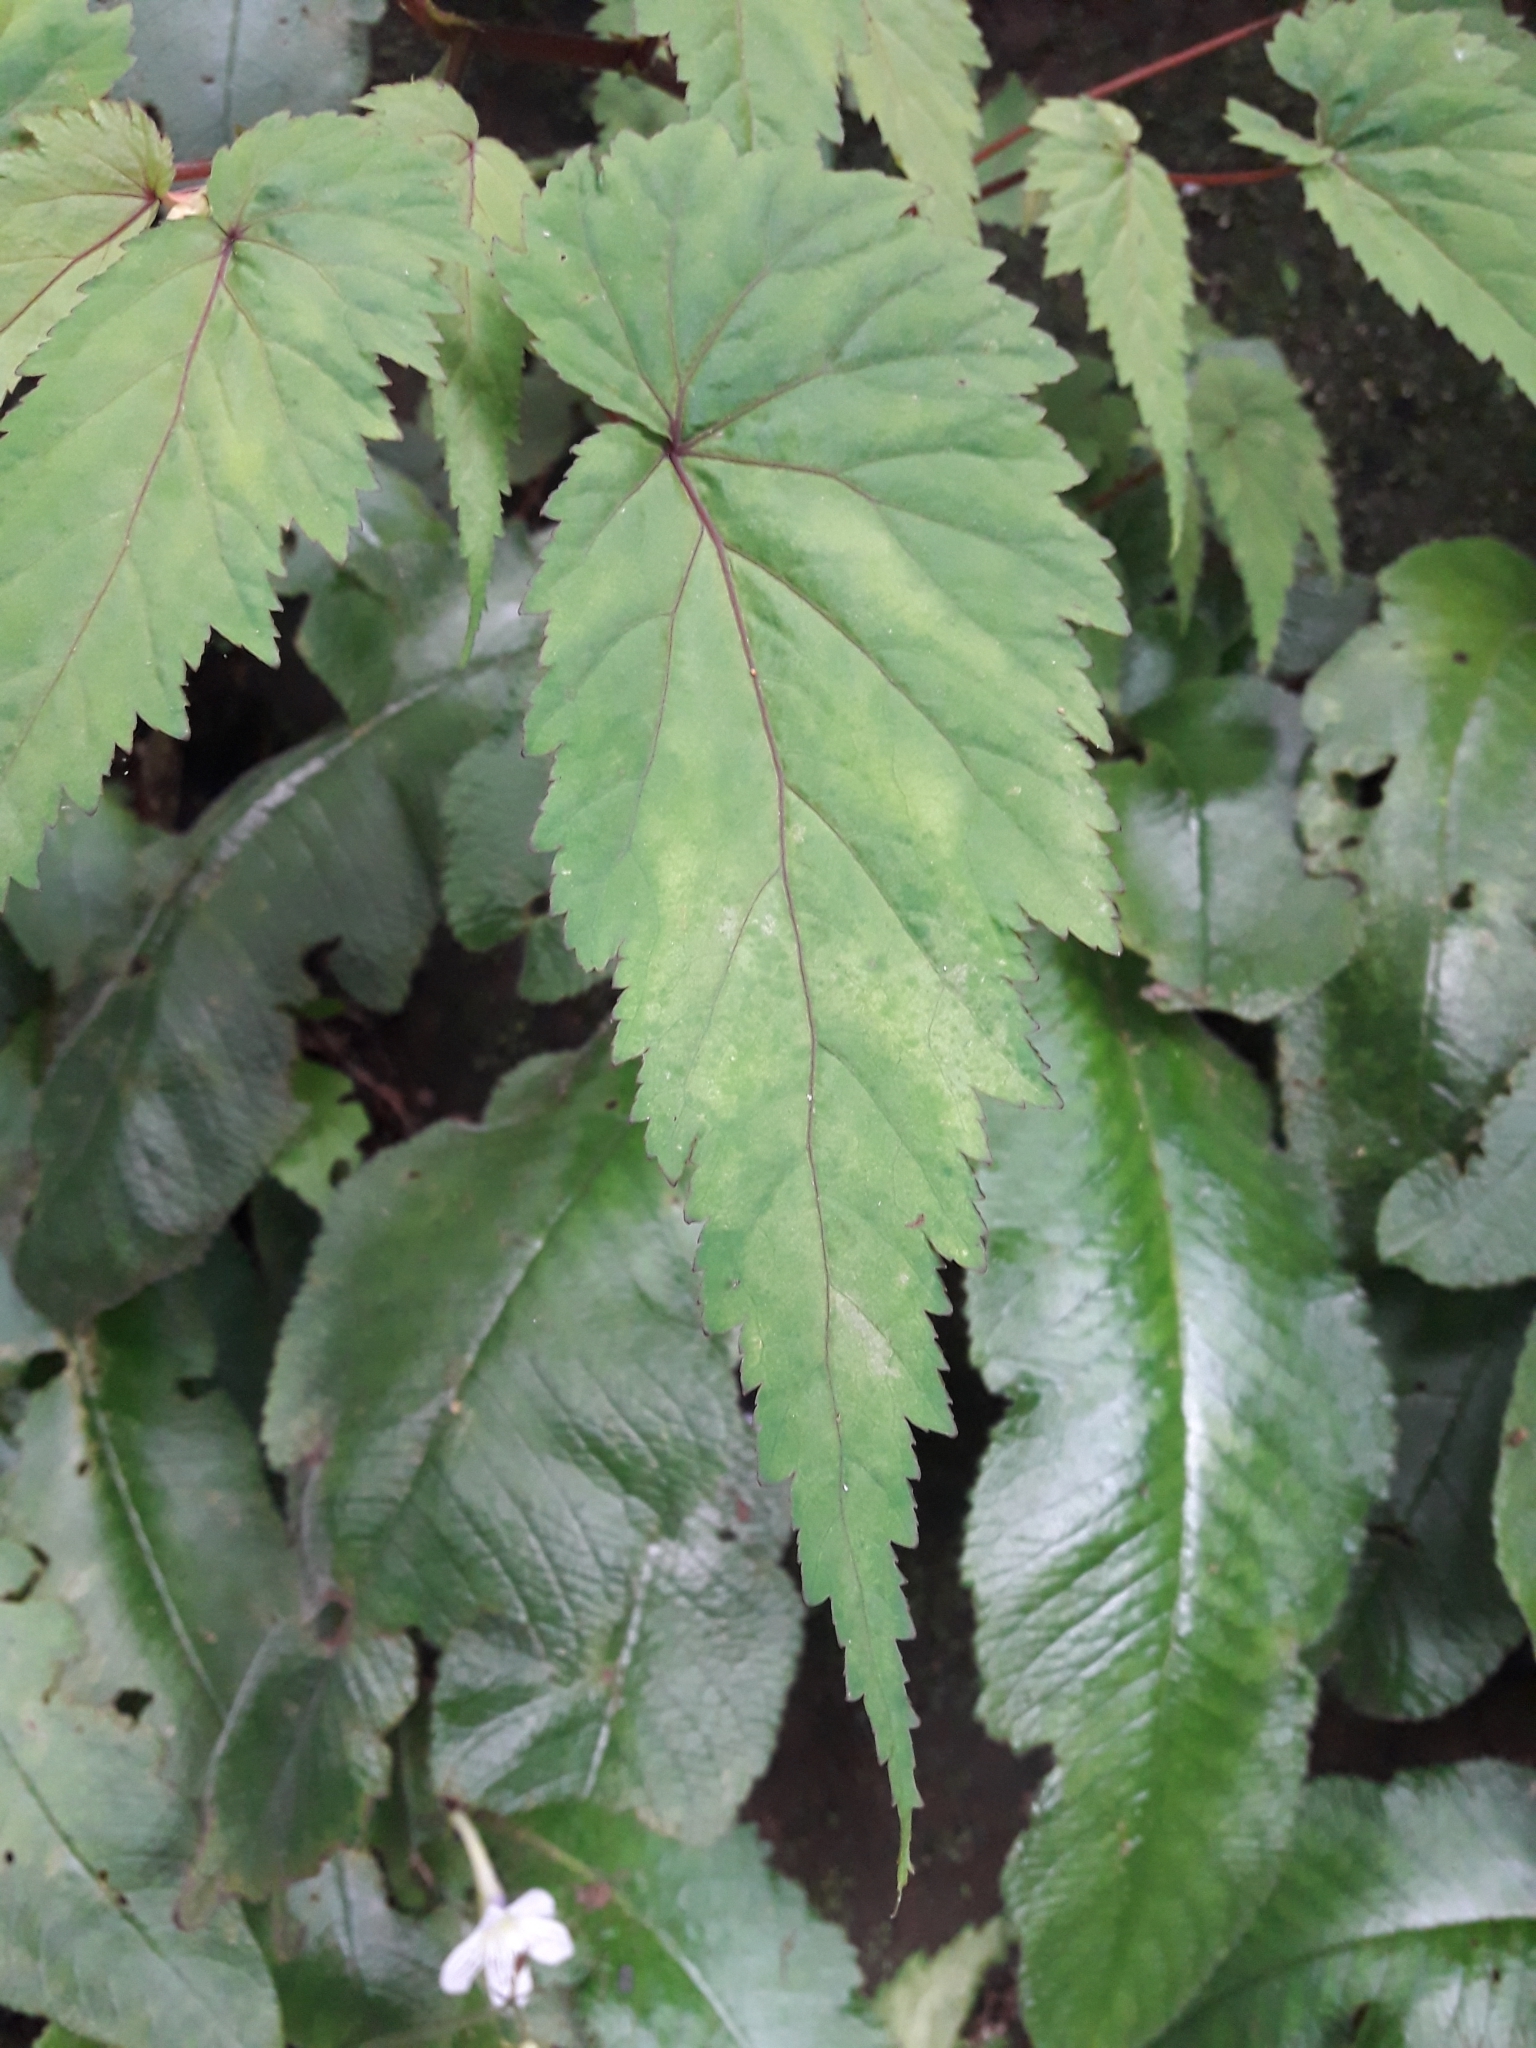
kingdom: Plantae
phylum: Tracheophyta
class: Magnoliopsida
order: Cucurbitales
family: Begoniaceae
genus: Begonia
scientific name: Begonia sutherlandii
